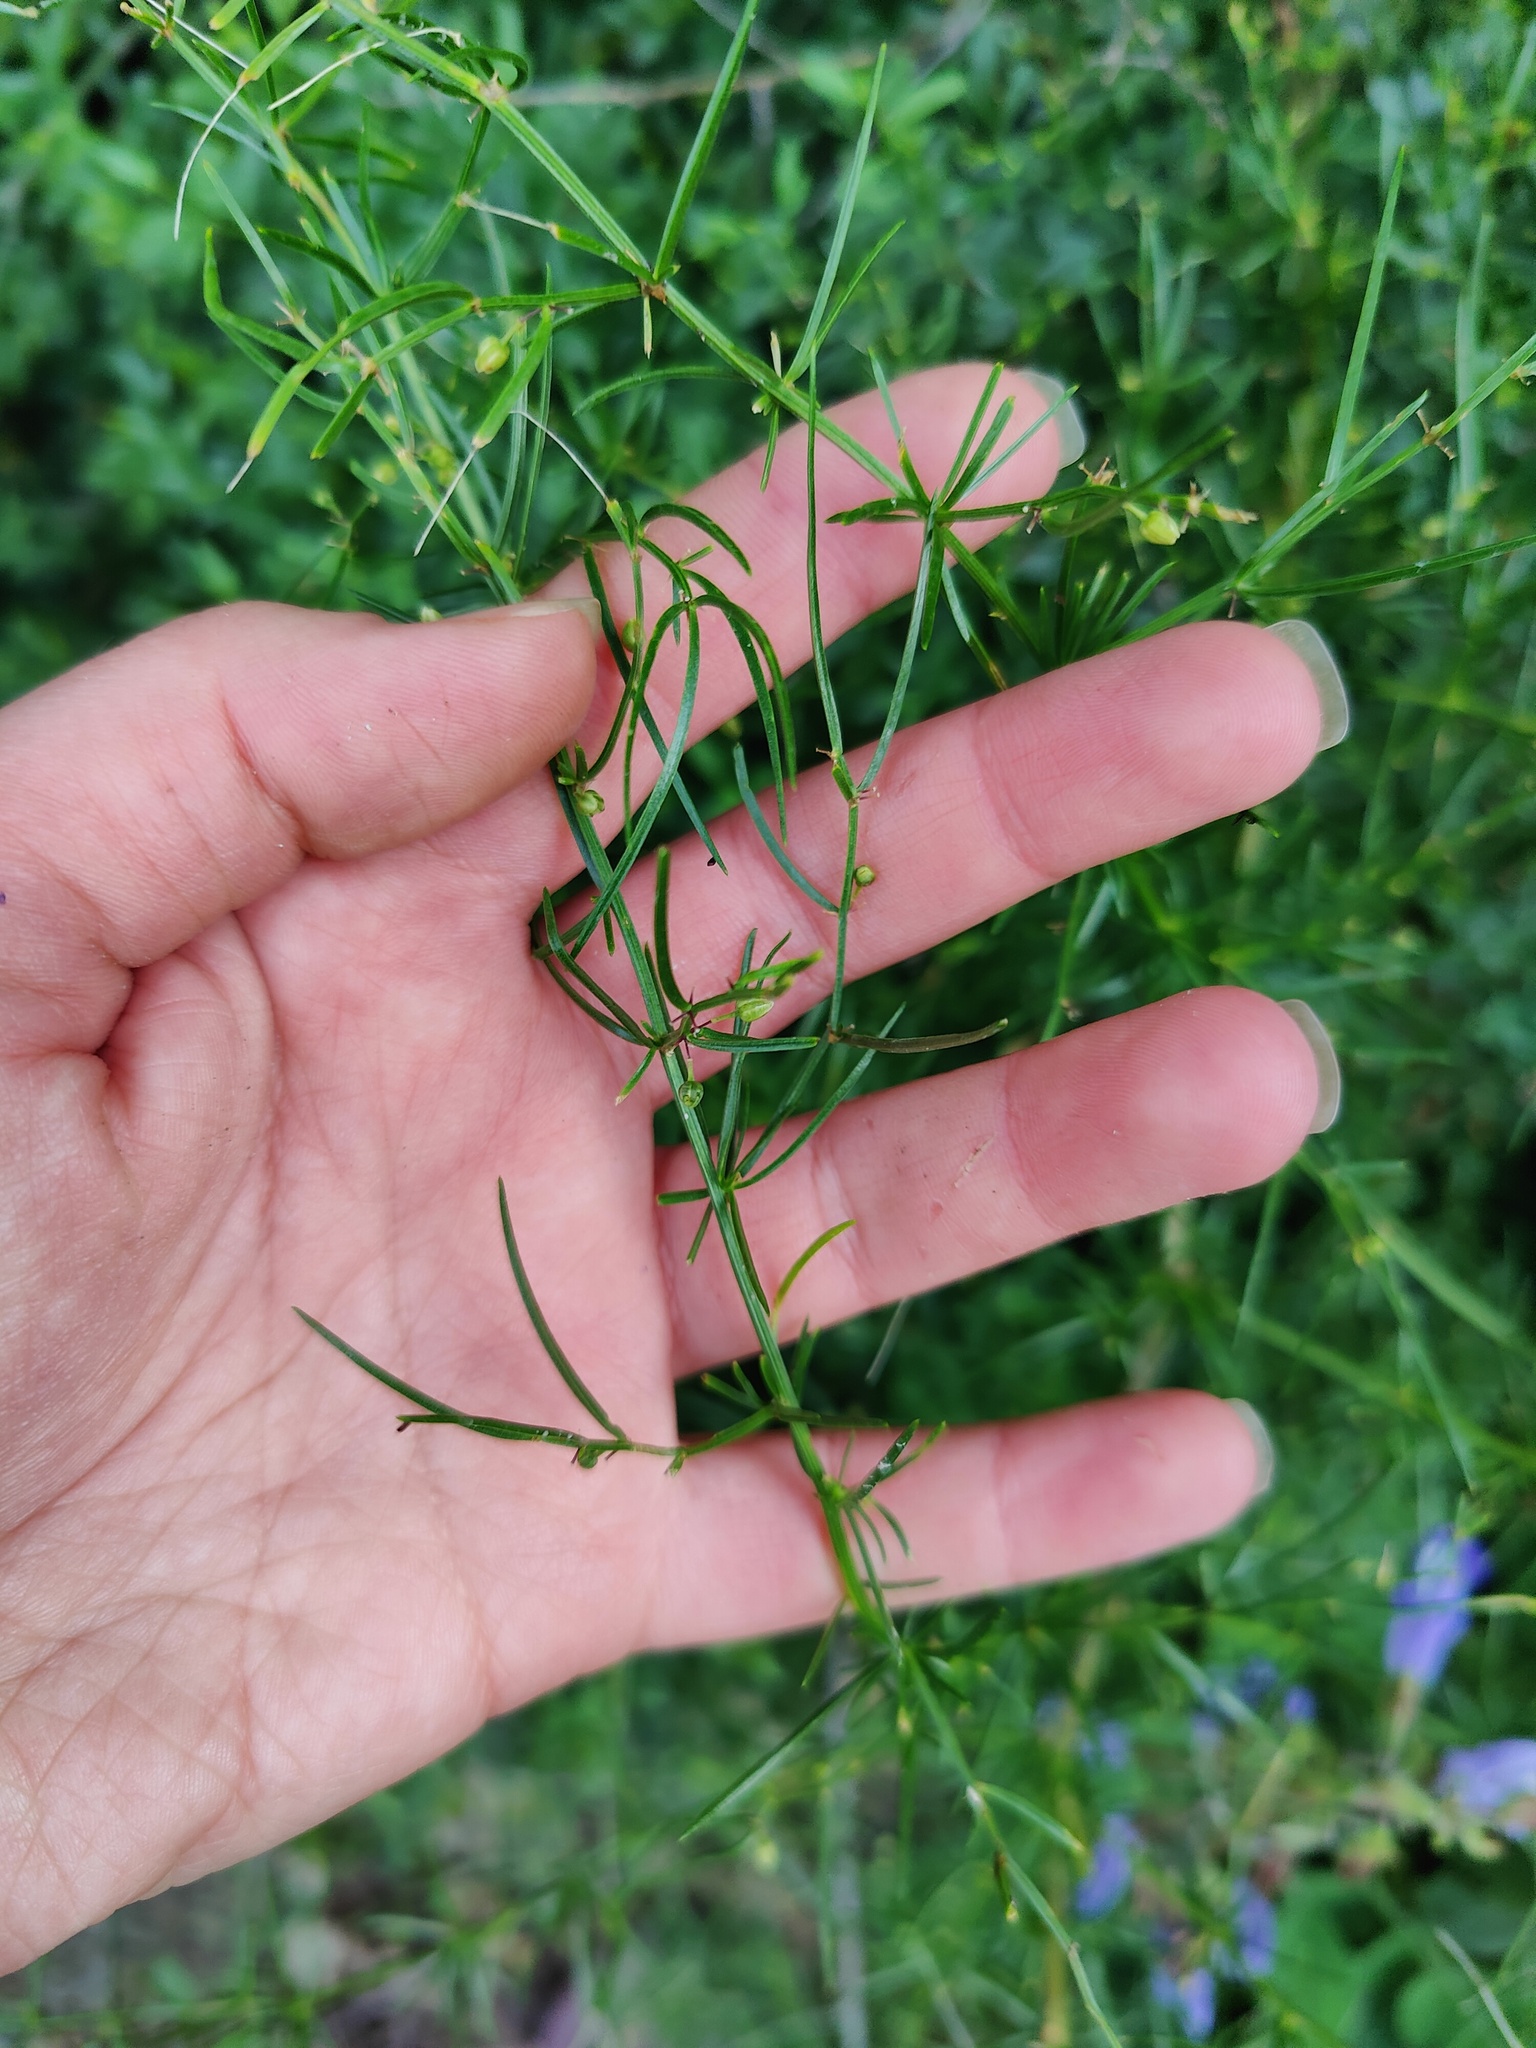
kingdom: Plantae
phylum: Tracheophyta
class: Liliopsida
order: Asparagales
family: Asparagaceae
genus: Asparagus
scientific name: Asparagus verticillatus
